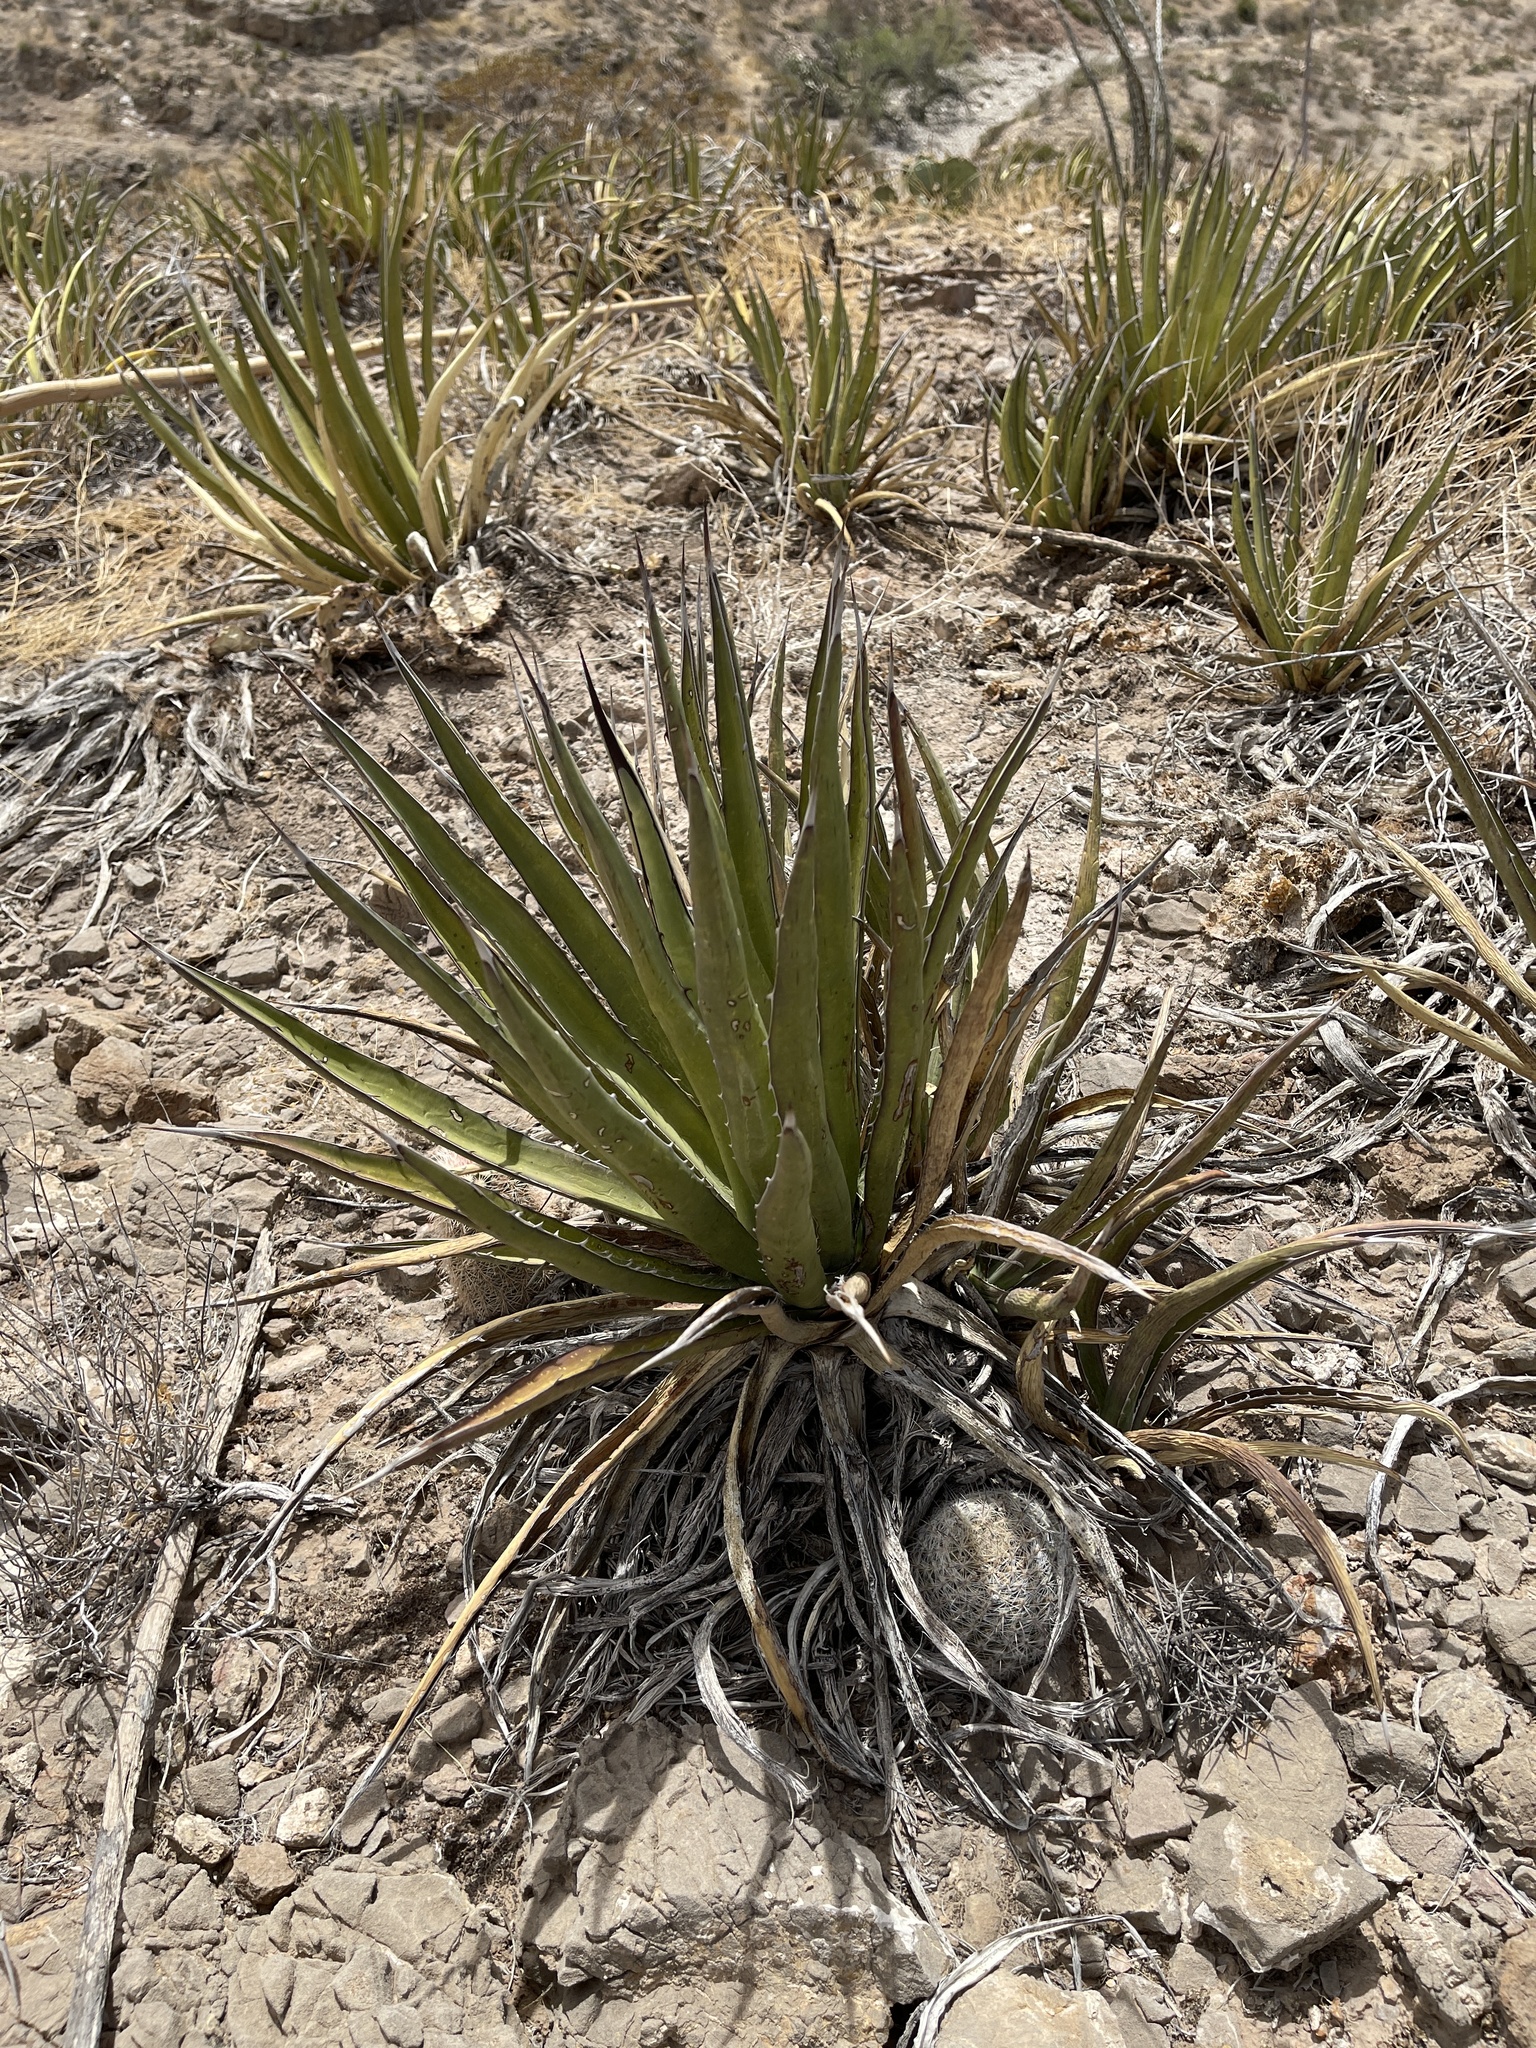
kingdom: Plantae
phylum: Tracheophyta
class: Liliopsida
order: Asparagales
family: Asparagaceae
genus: Agave
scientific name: Agave lechuguilla
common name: Lecheguilla agave
